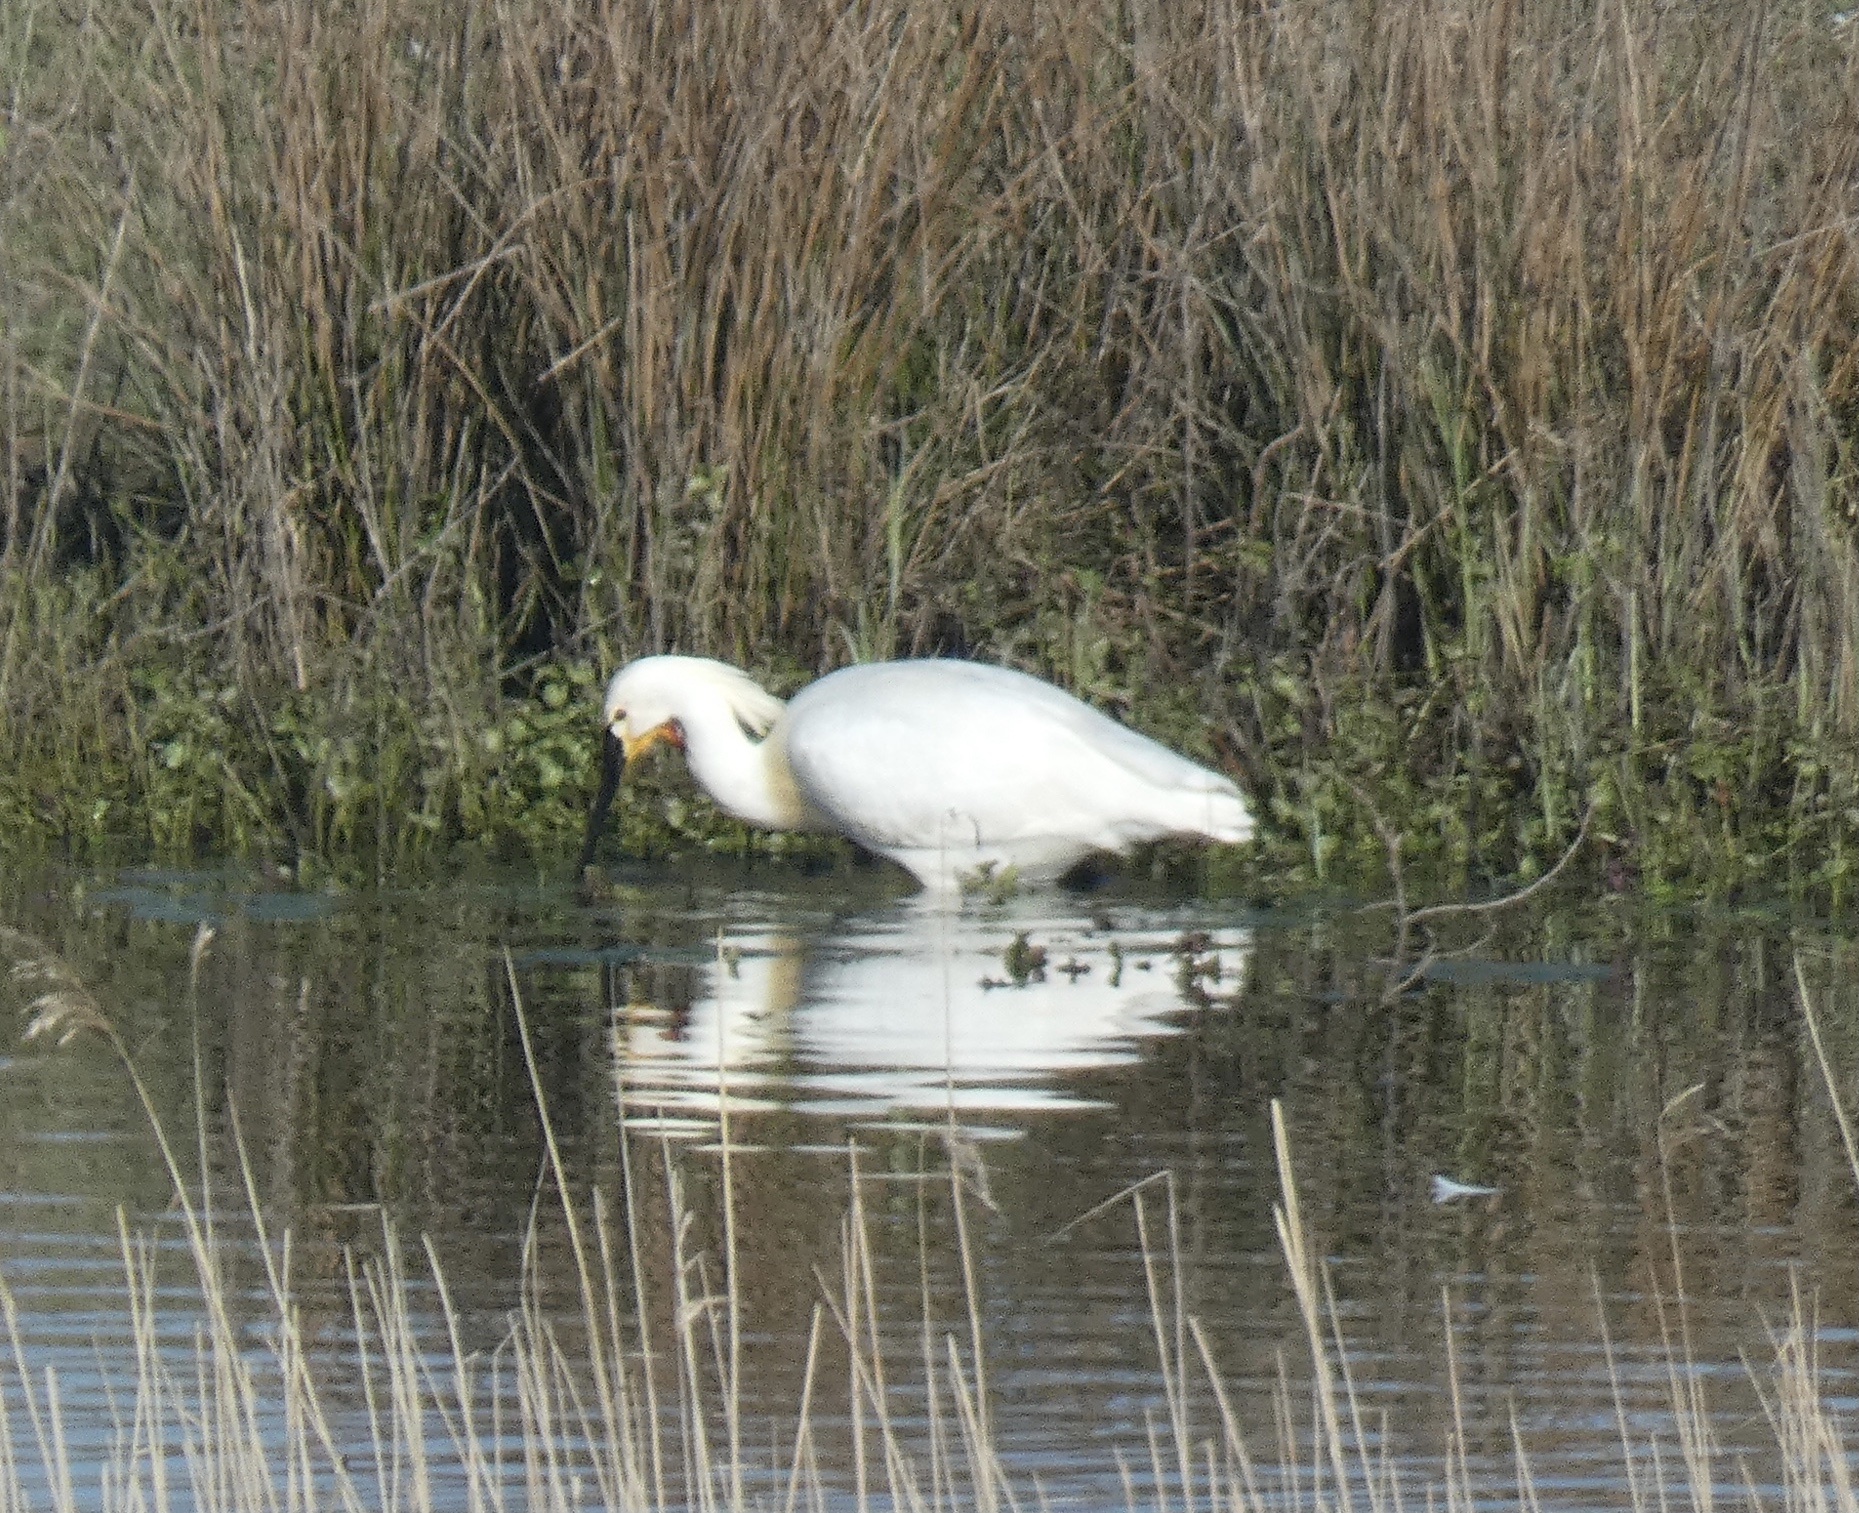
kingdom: Animalia
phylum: Chordata
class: Aves
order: Pelecaniformes
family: Threskiornithidae
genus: Platalea
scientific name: Platalea leucorodia
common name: Eurasian spoonbill
